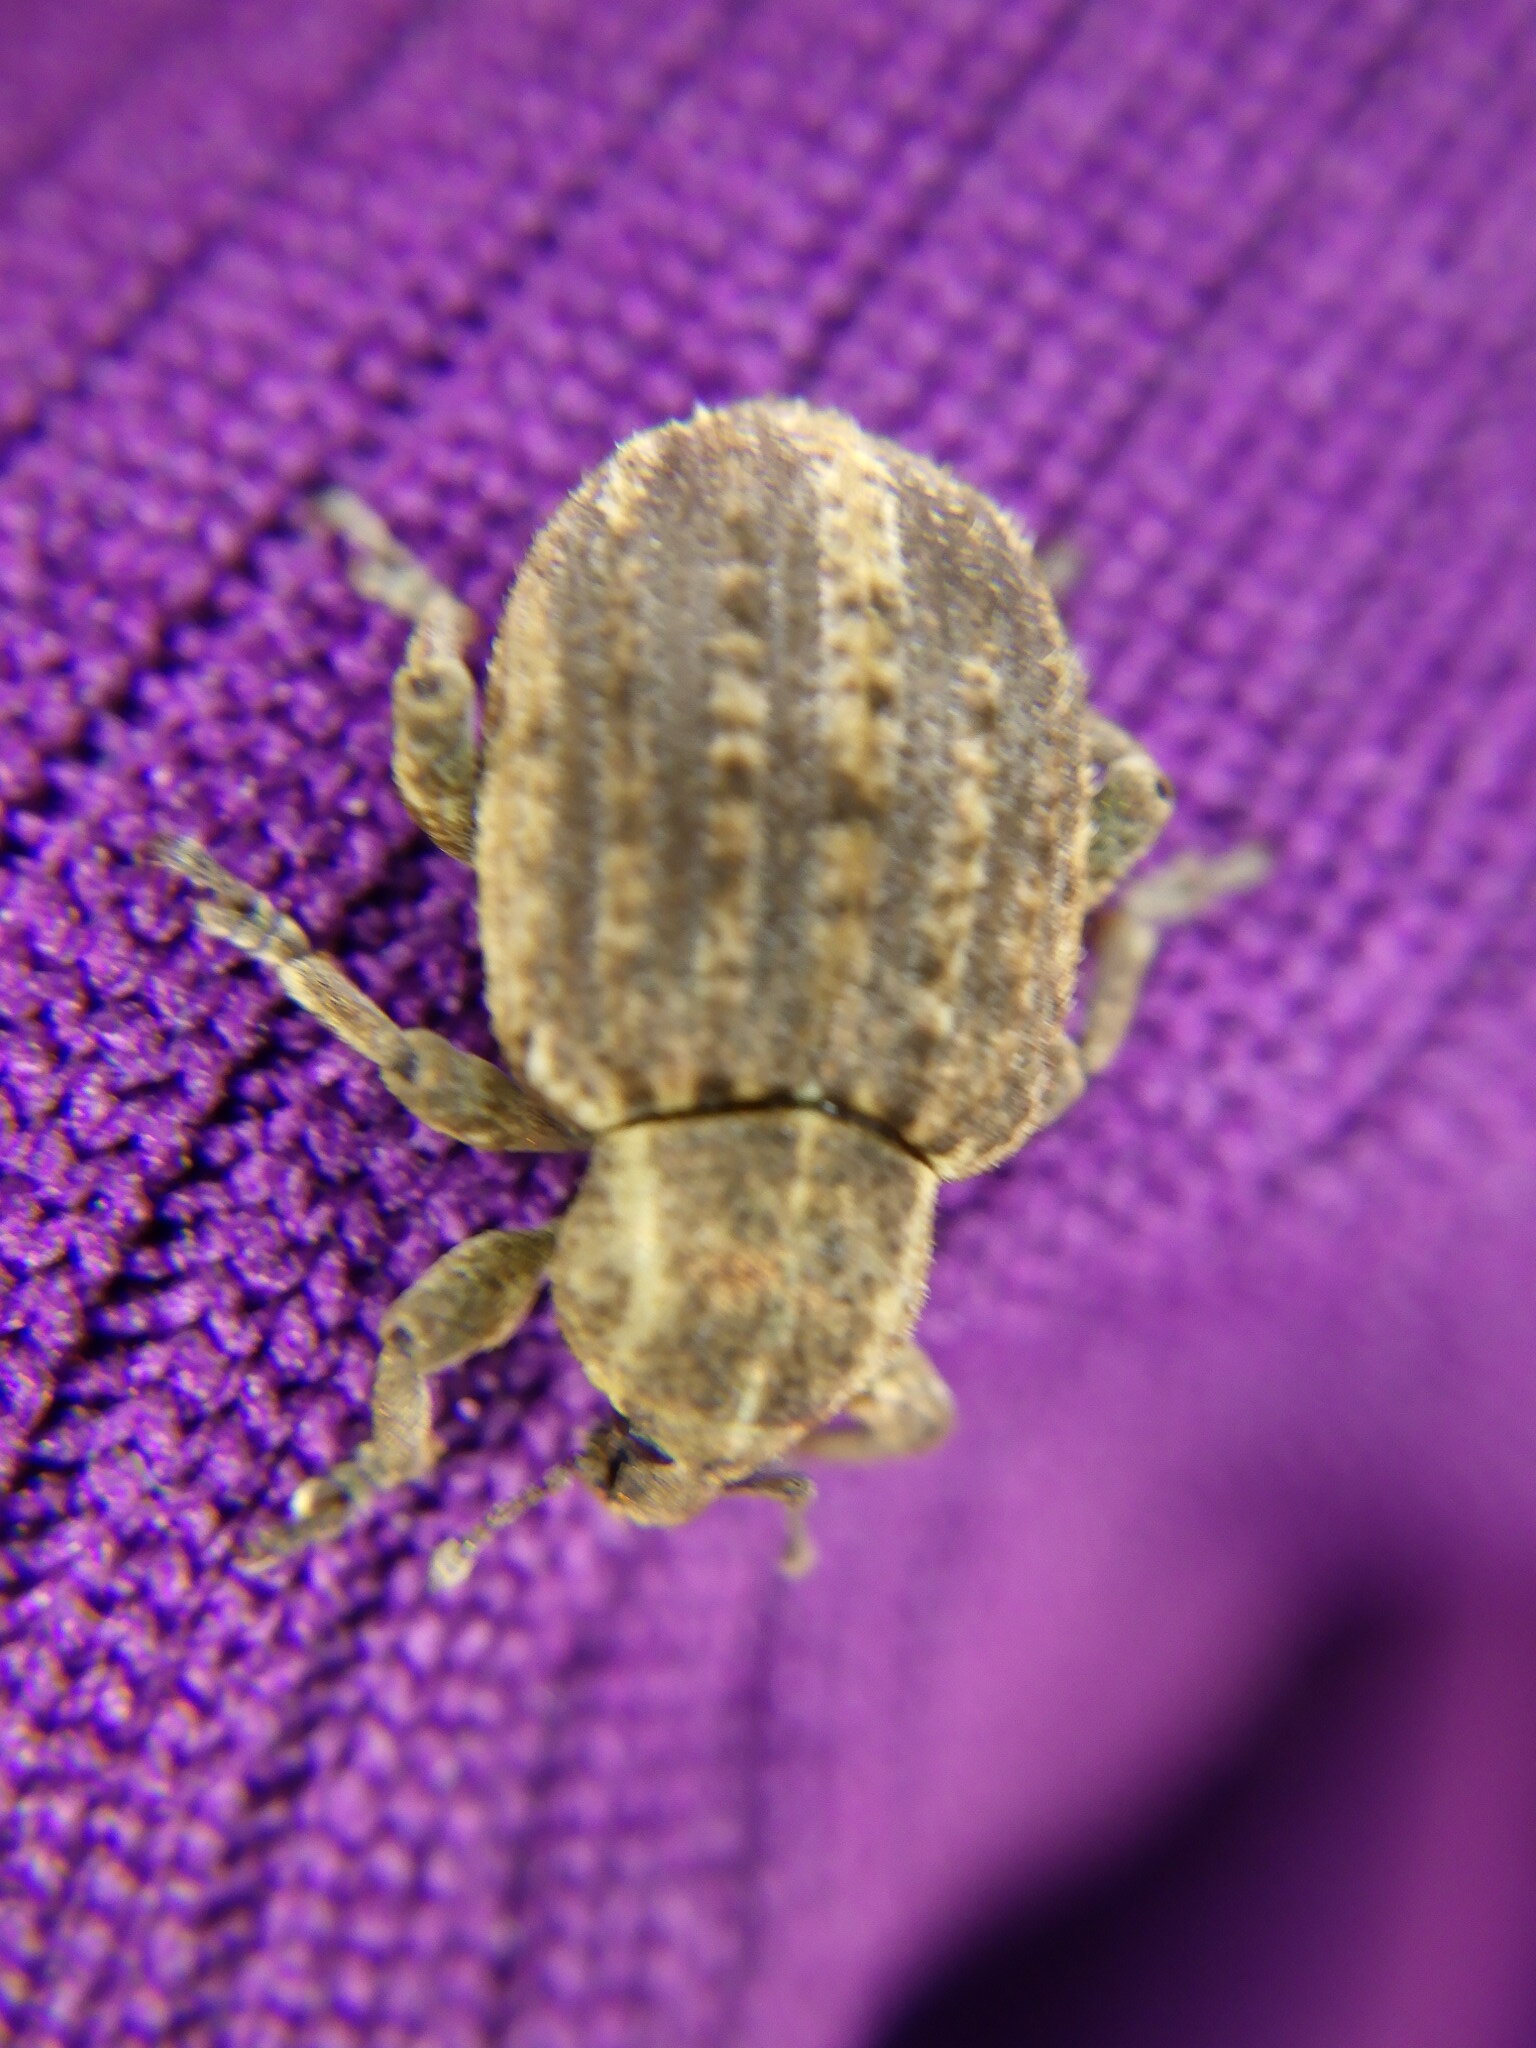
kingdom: Animalia
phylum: Arthropoda
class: Insecta
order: Coleoptera
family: Curculionidae
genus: Brachypera
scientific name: Brachypera zoilus
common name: Clover leaf weevil
